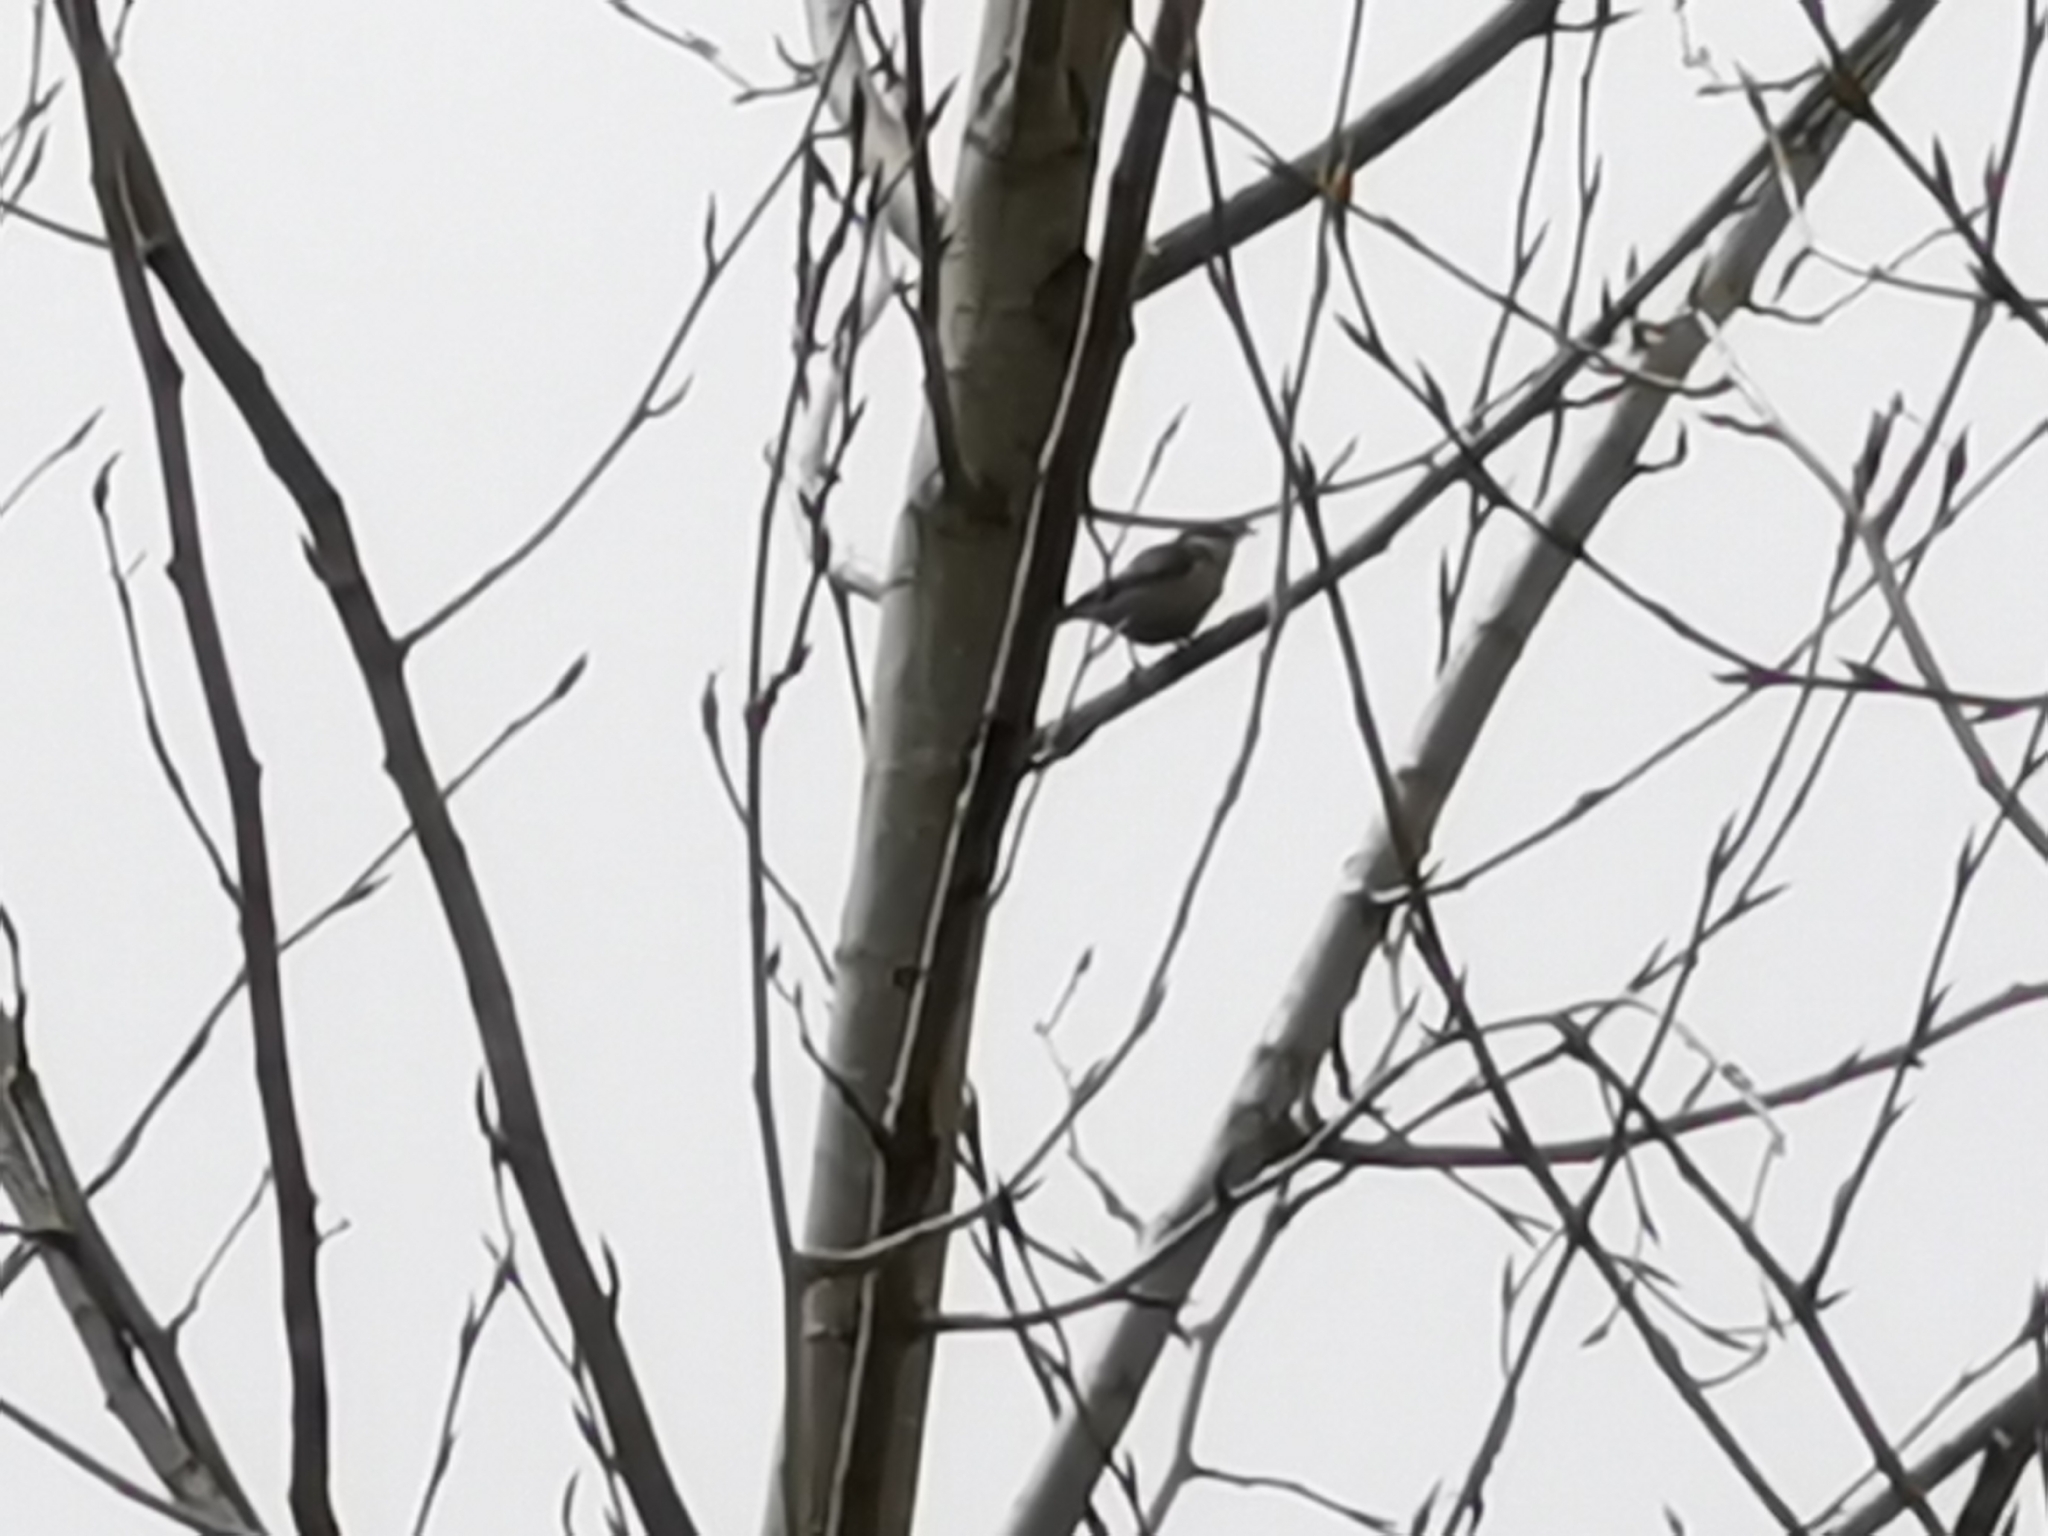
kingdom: Animalia
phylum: Chordata
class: Aves
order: Passeriformes
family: Sittidae
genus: Sitta
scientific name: Sitta pygmaea
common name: Pygmy nuthatch
